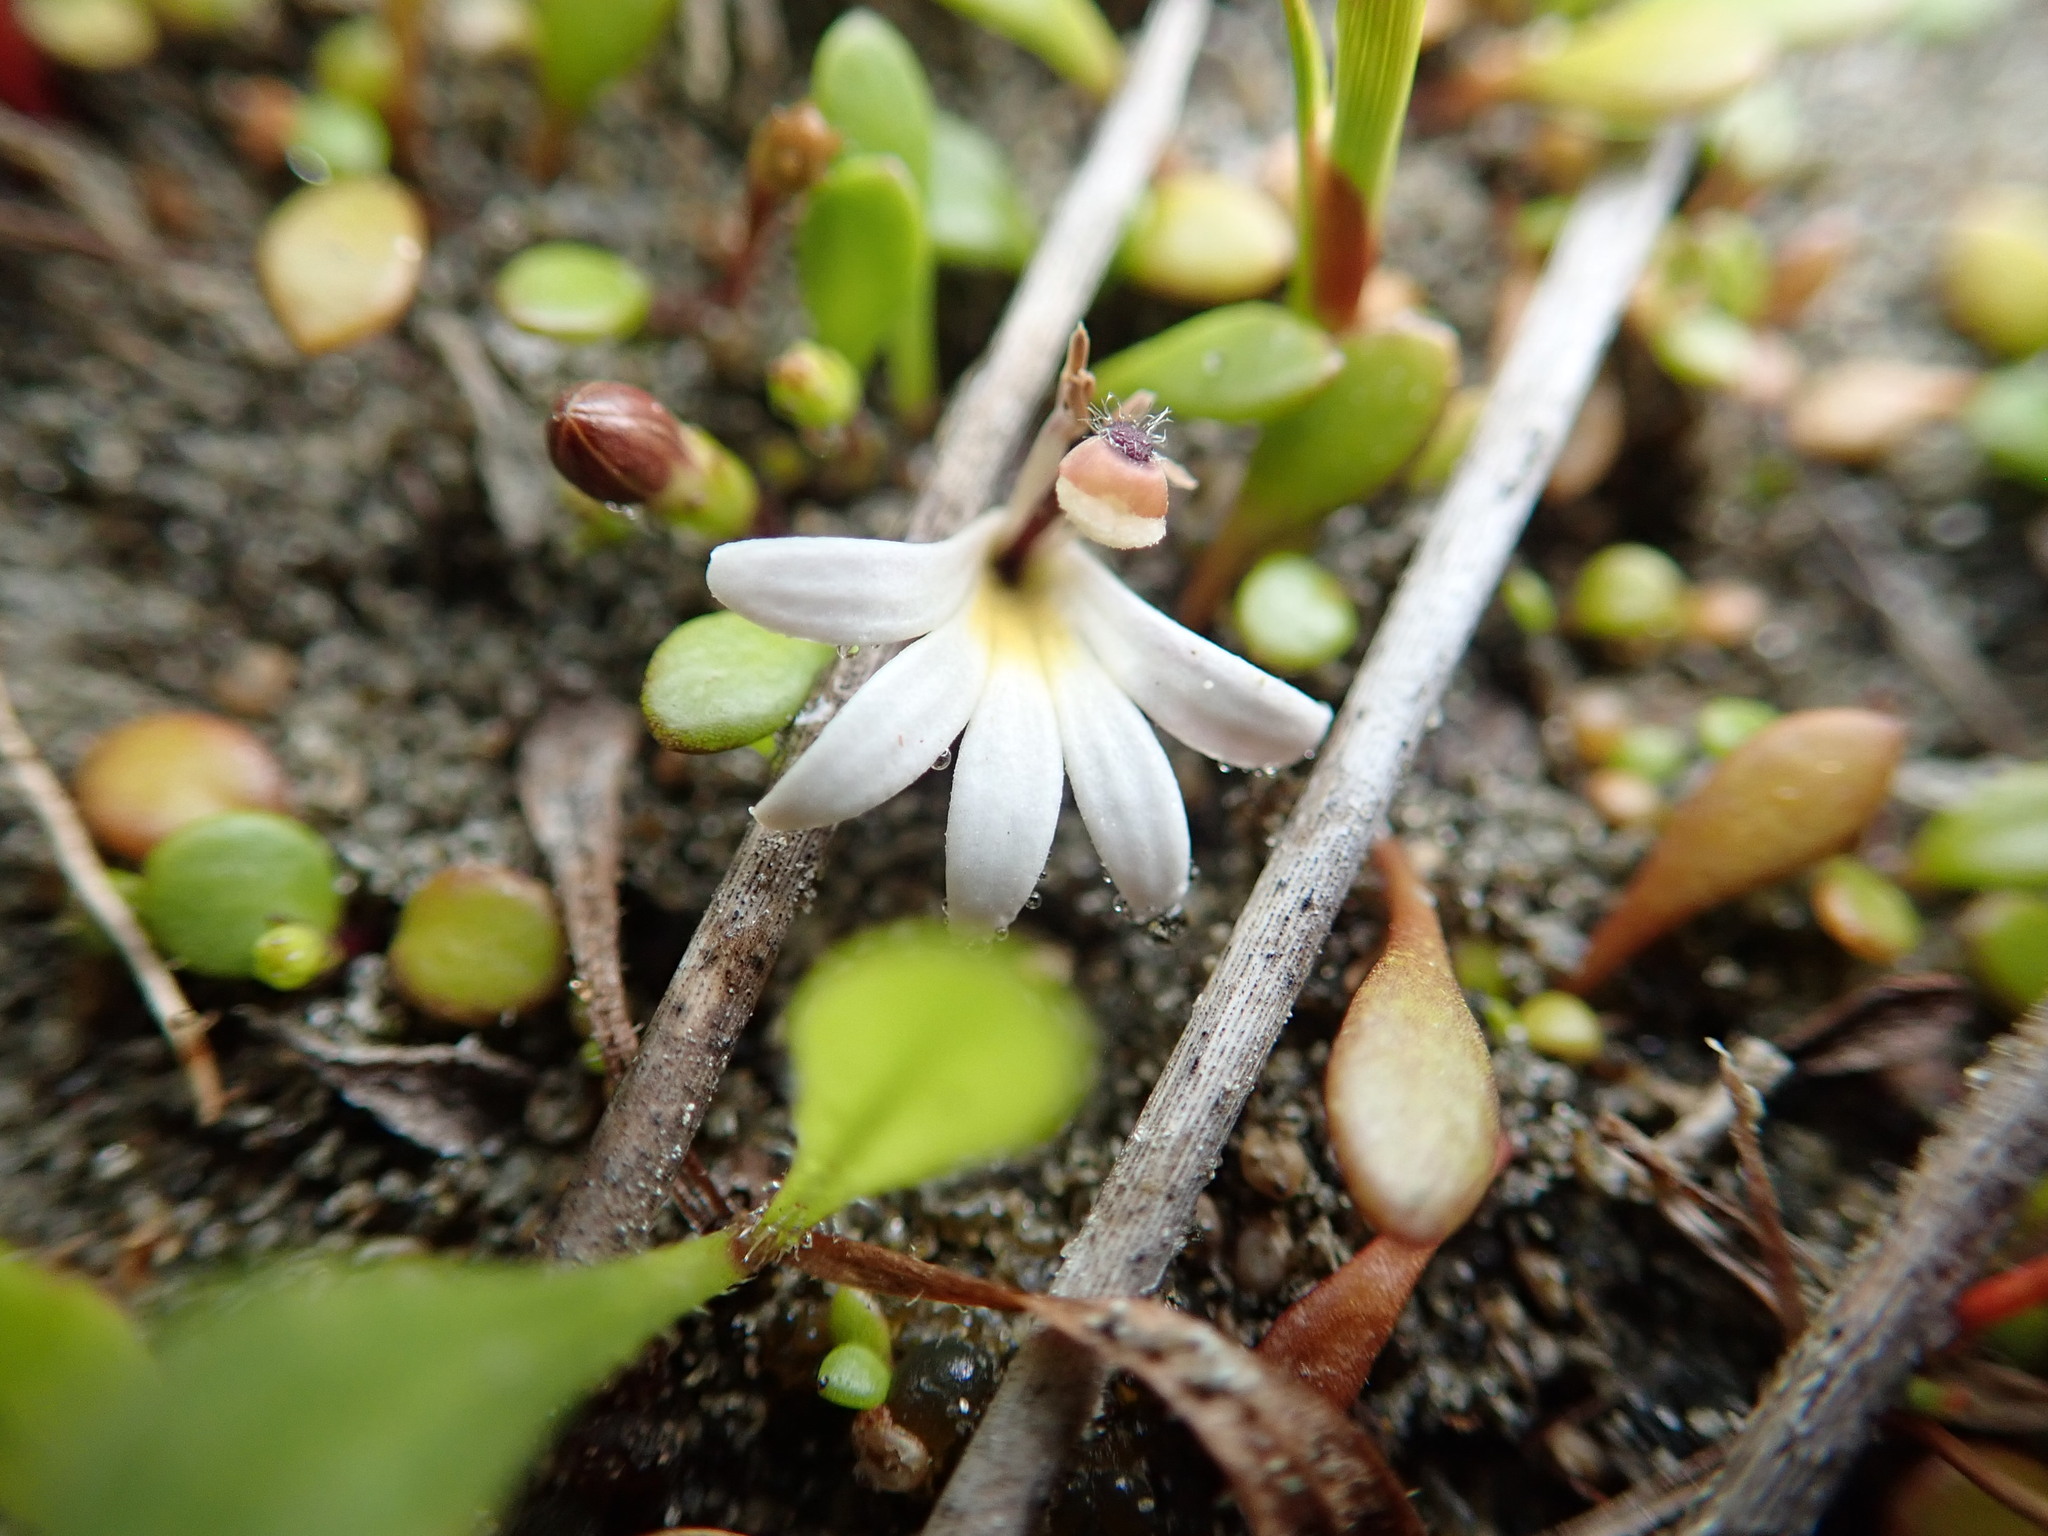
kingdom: Plantae
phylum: Tracheophyta
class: Magnoliopsida
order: Asterales
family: Goodeniaceae
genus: Goodenia
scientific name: Goodenia radicans
